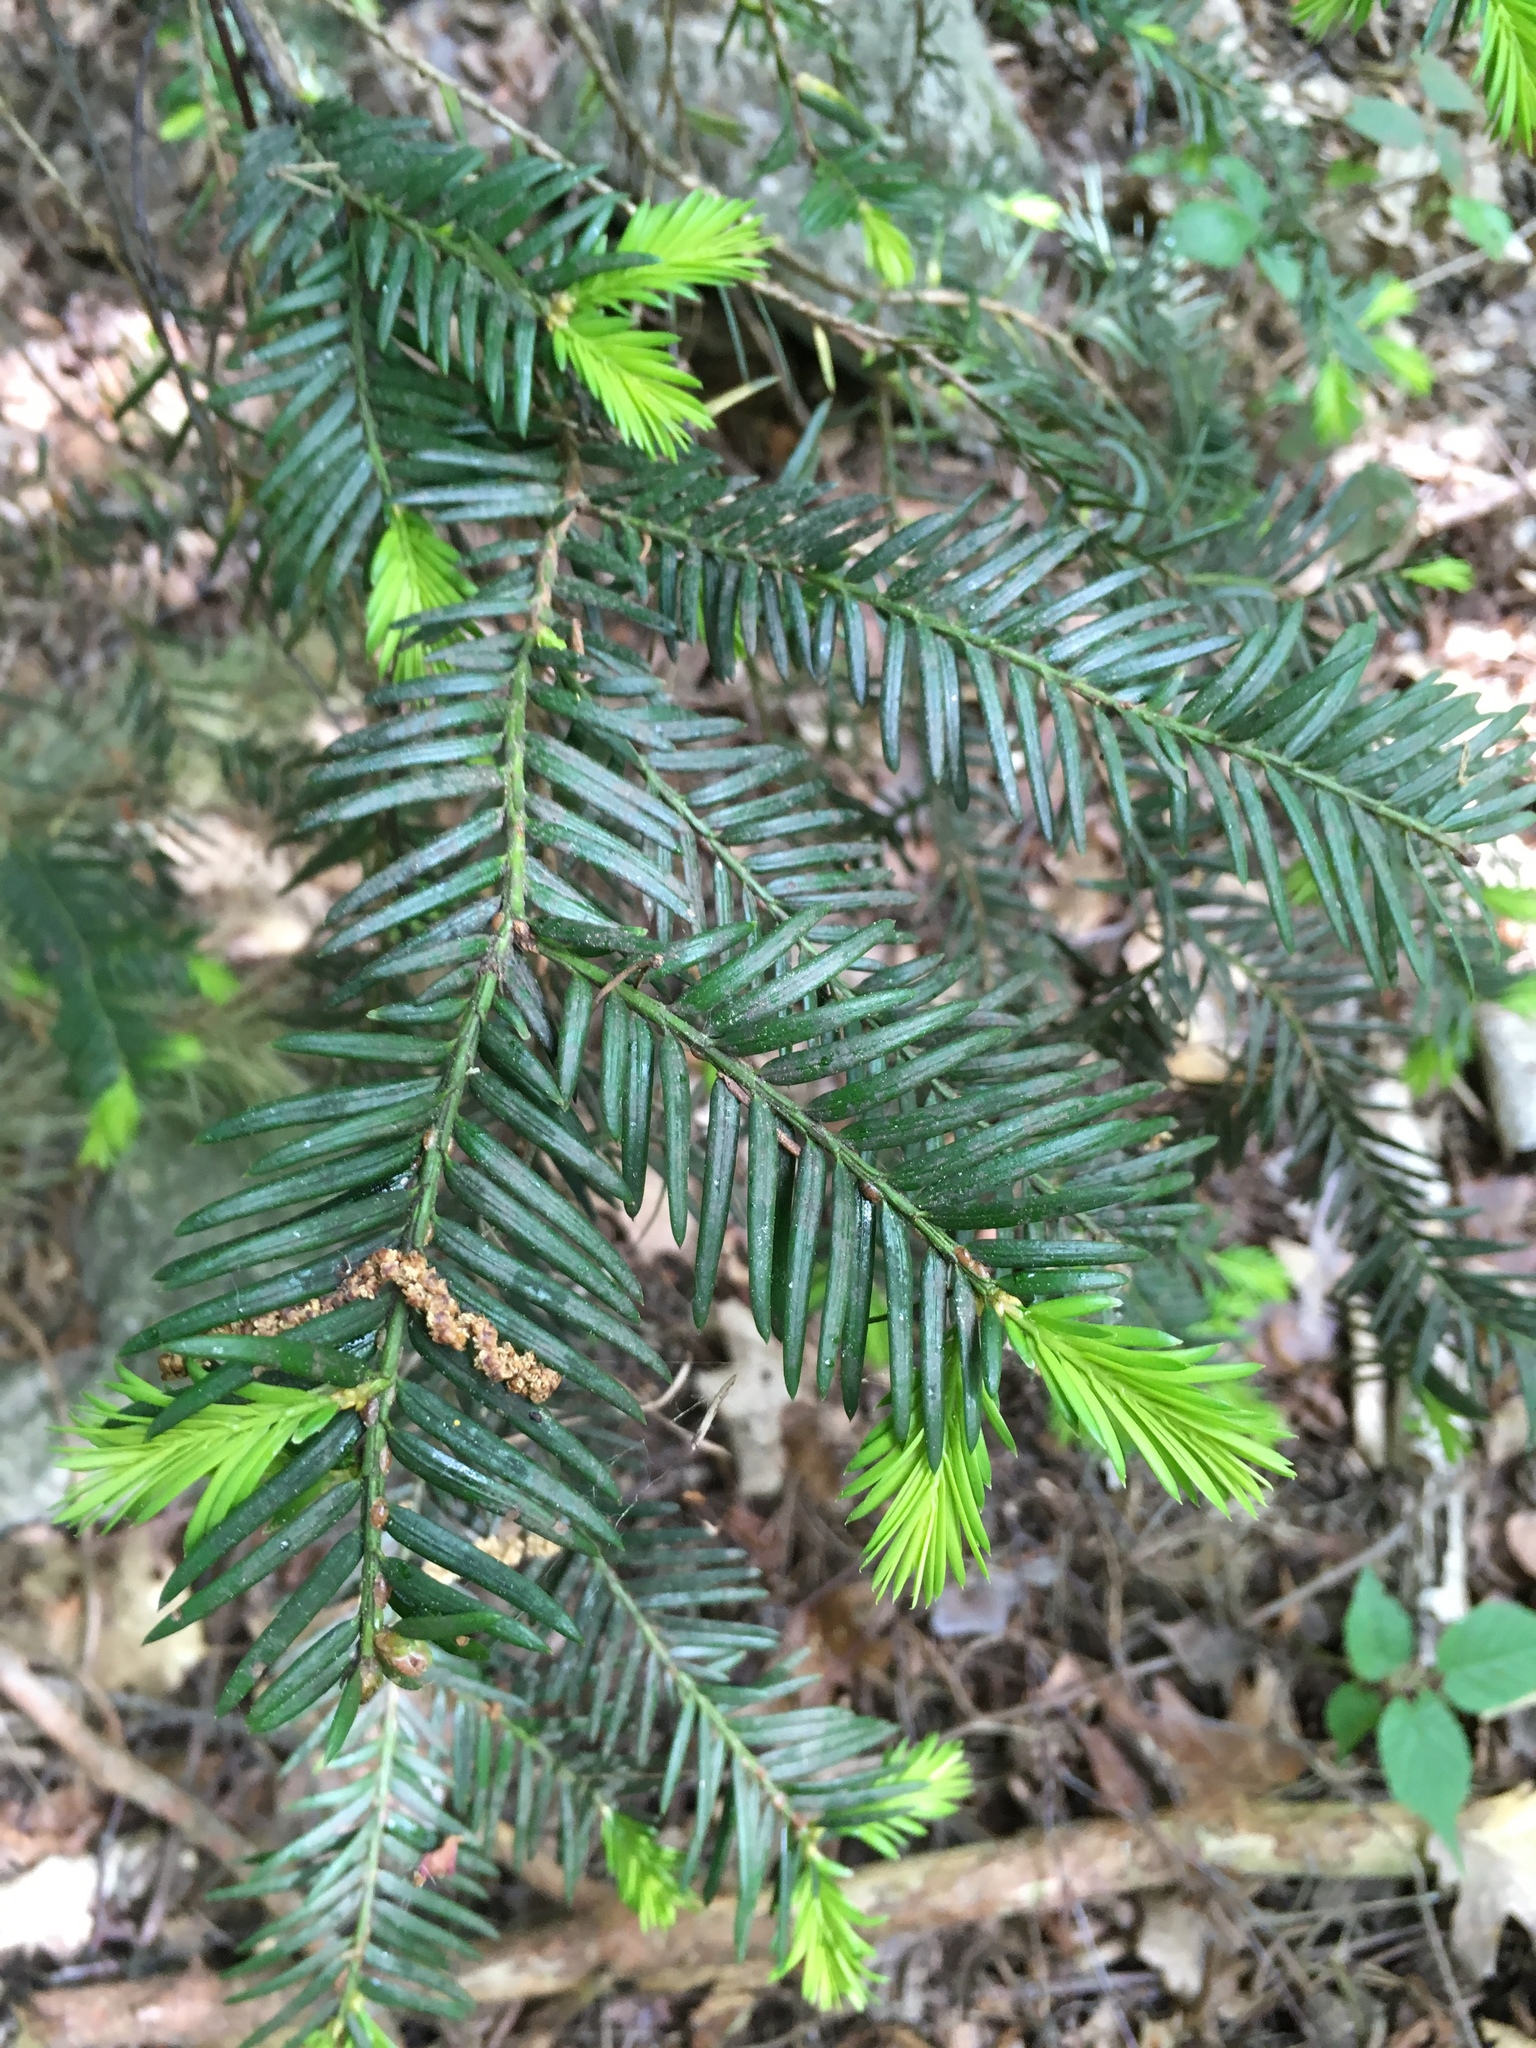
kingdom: Plantae
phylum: Tracheophyta
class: Pinopsida
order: Pinales
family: Taxaceae
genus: Taxus
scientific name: Taxus baccata
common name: Yew
